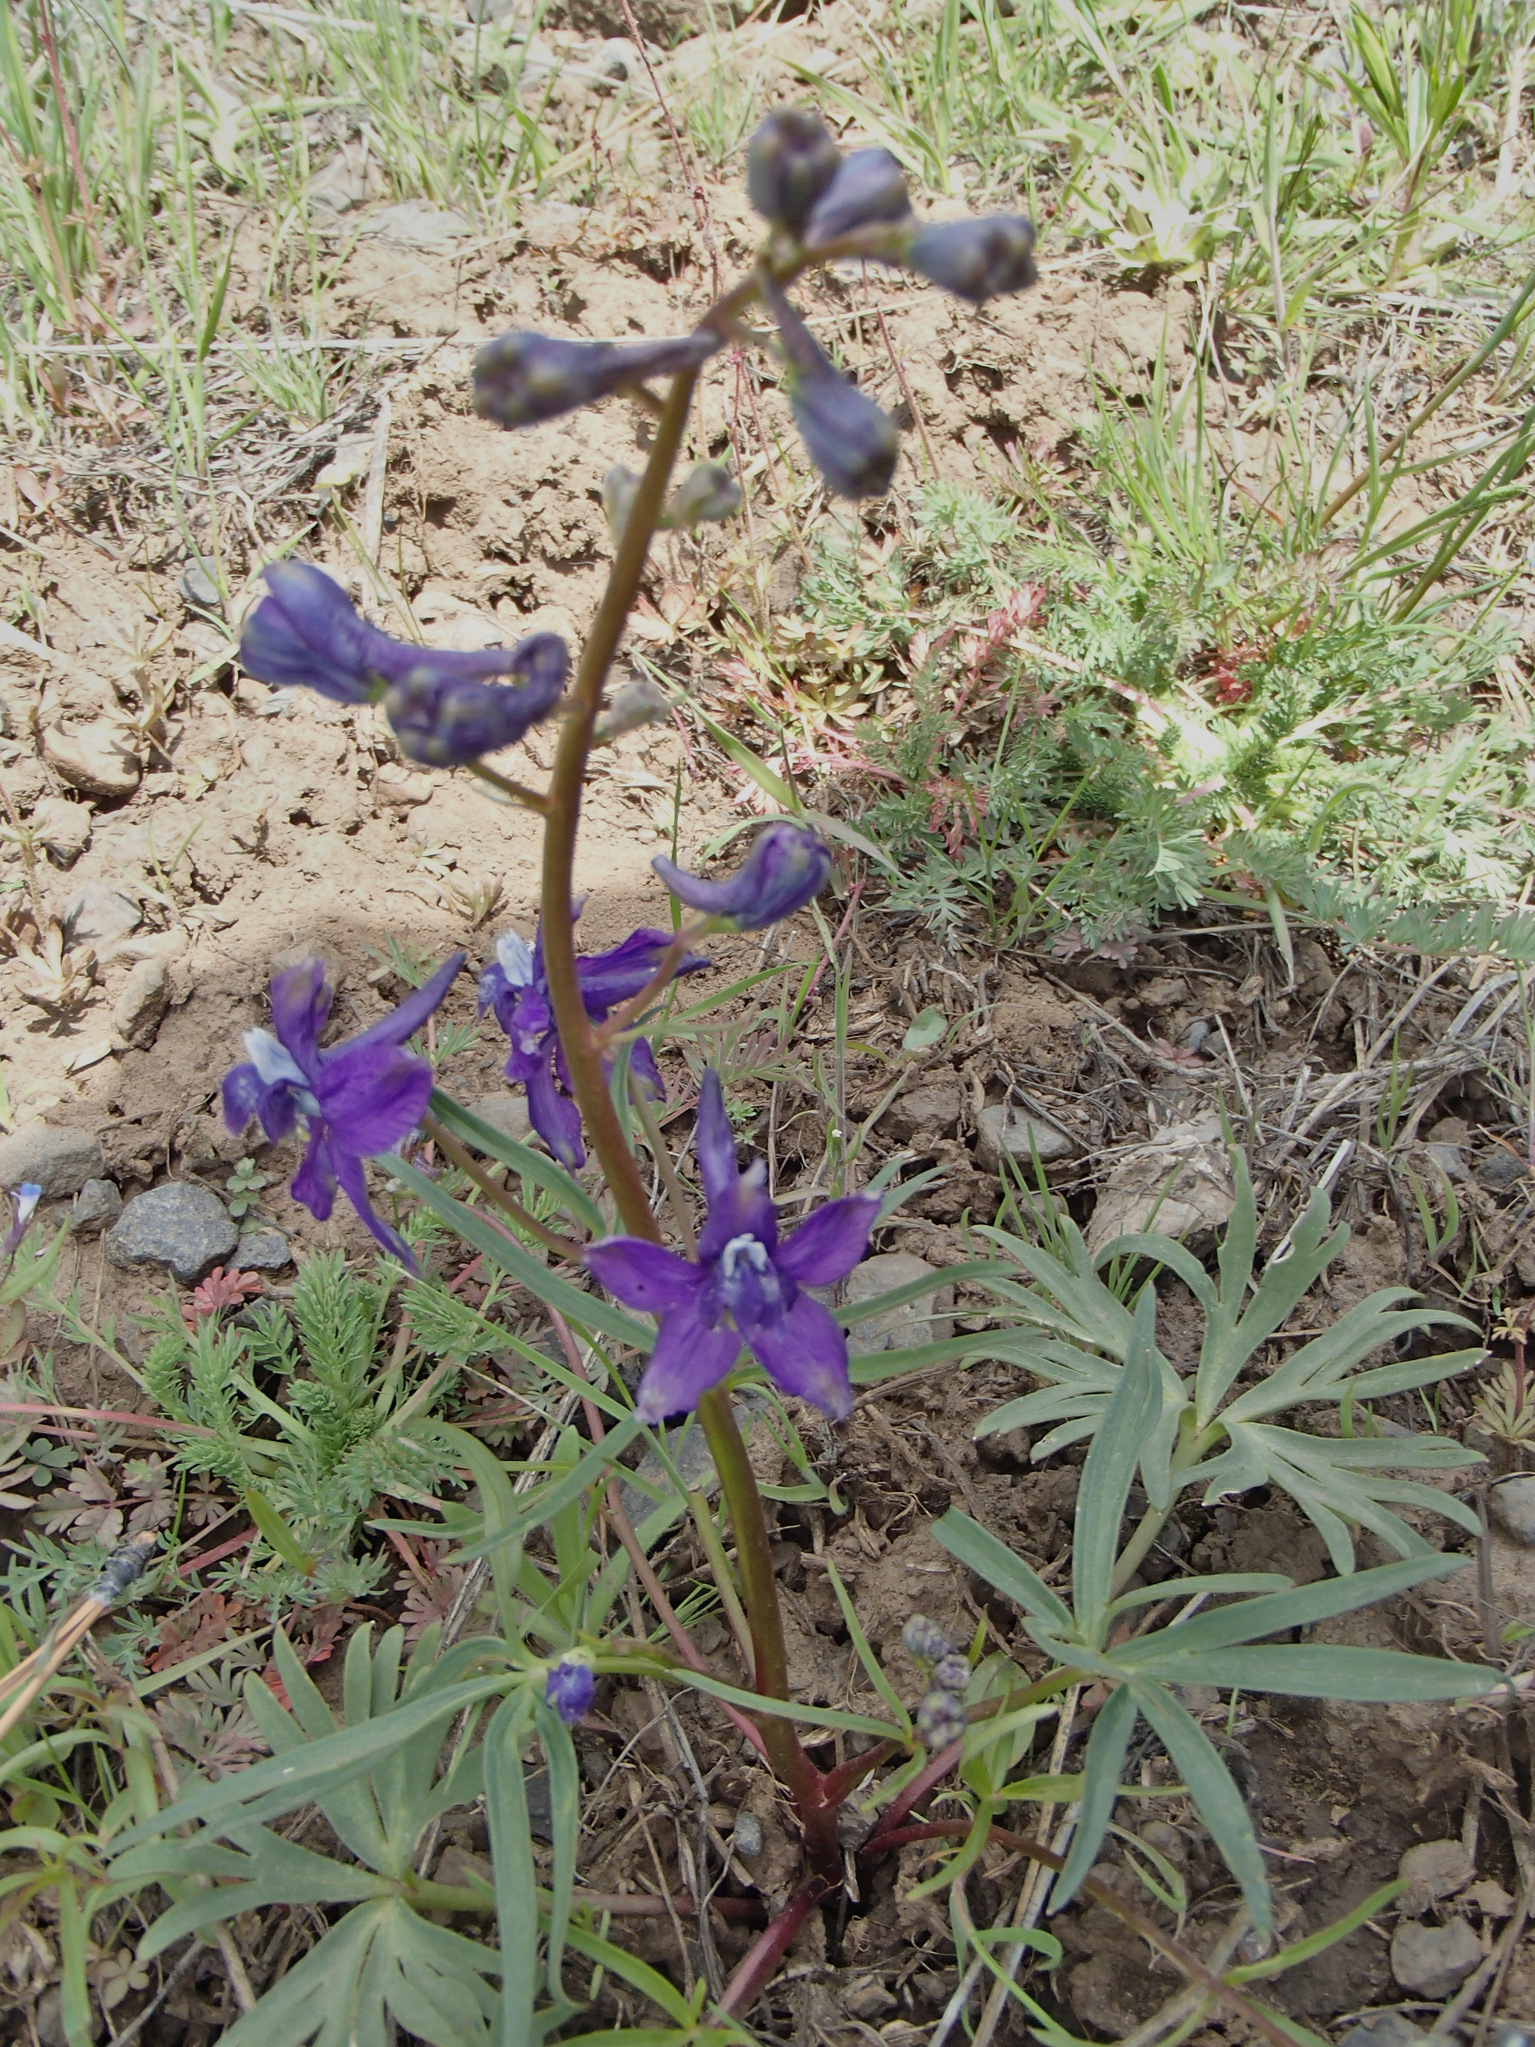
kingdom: Plantae
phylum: Tracheophyta
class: Magnoliopsida
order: Ranunculales
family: Ranunculaceae
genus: Delphinium
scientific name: Delphinium nuttallianum
